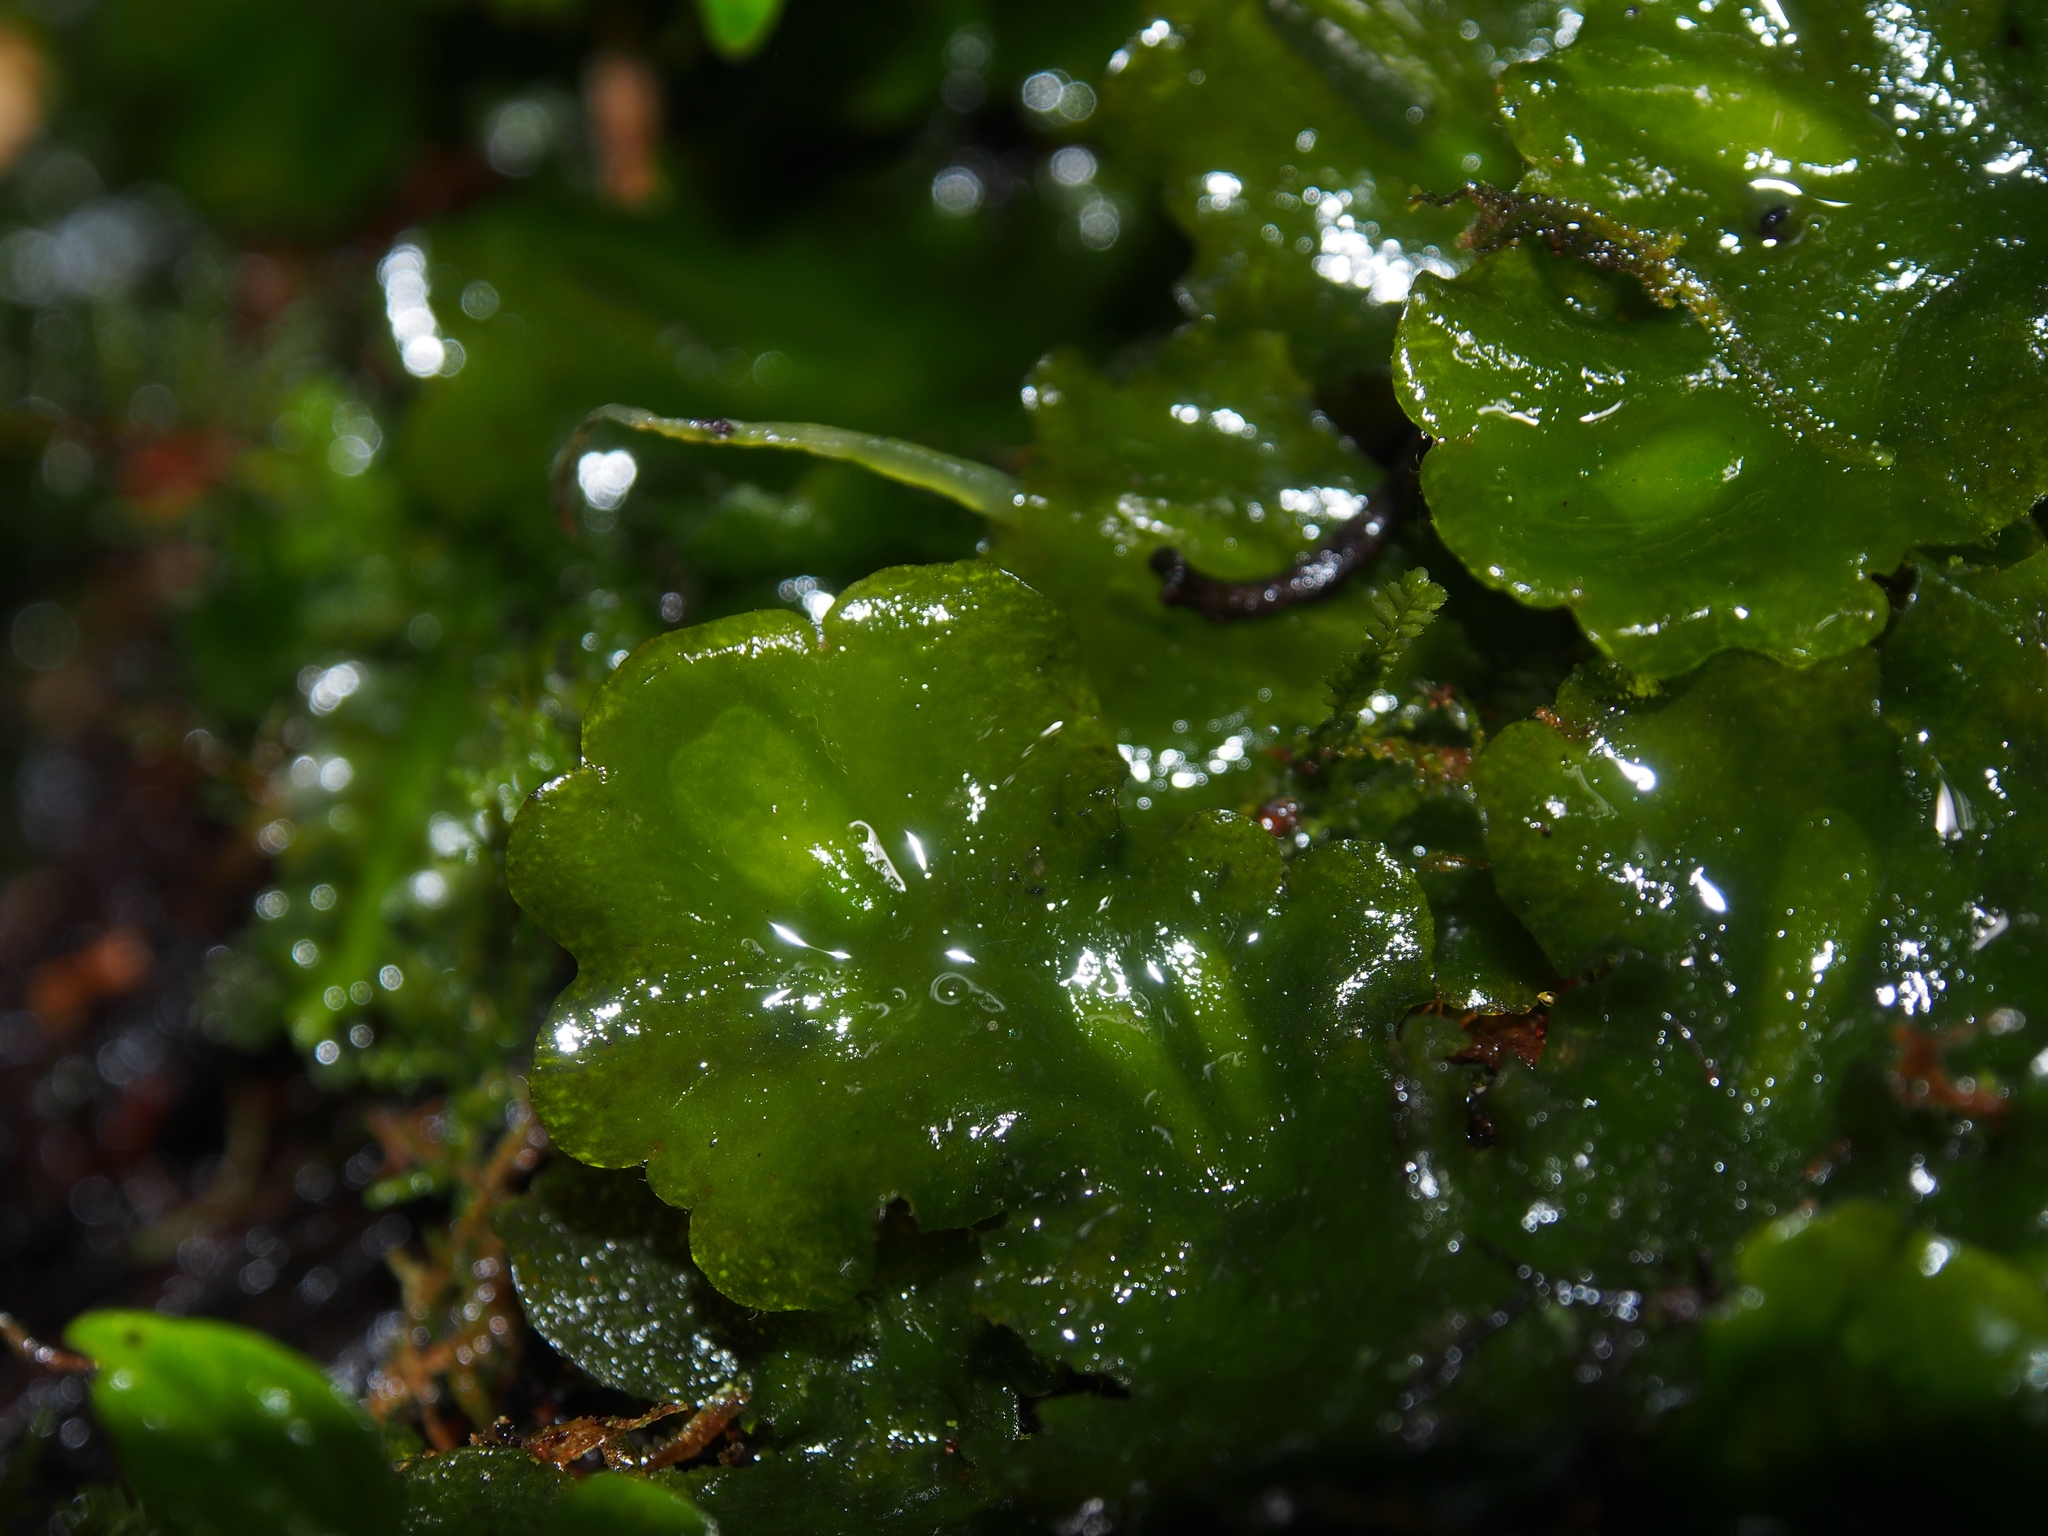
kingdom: Plantae
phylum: Marchantiophyta
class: Marchantiopsida
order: Marchantiales
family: Monocleaceae
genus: Monoclea
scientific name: Monoclea gottschei
